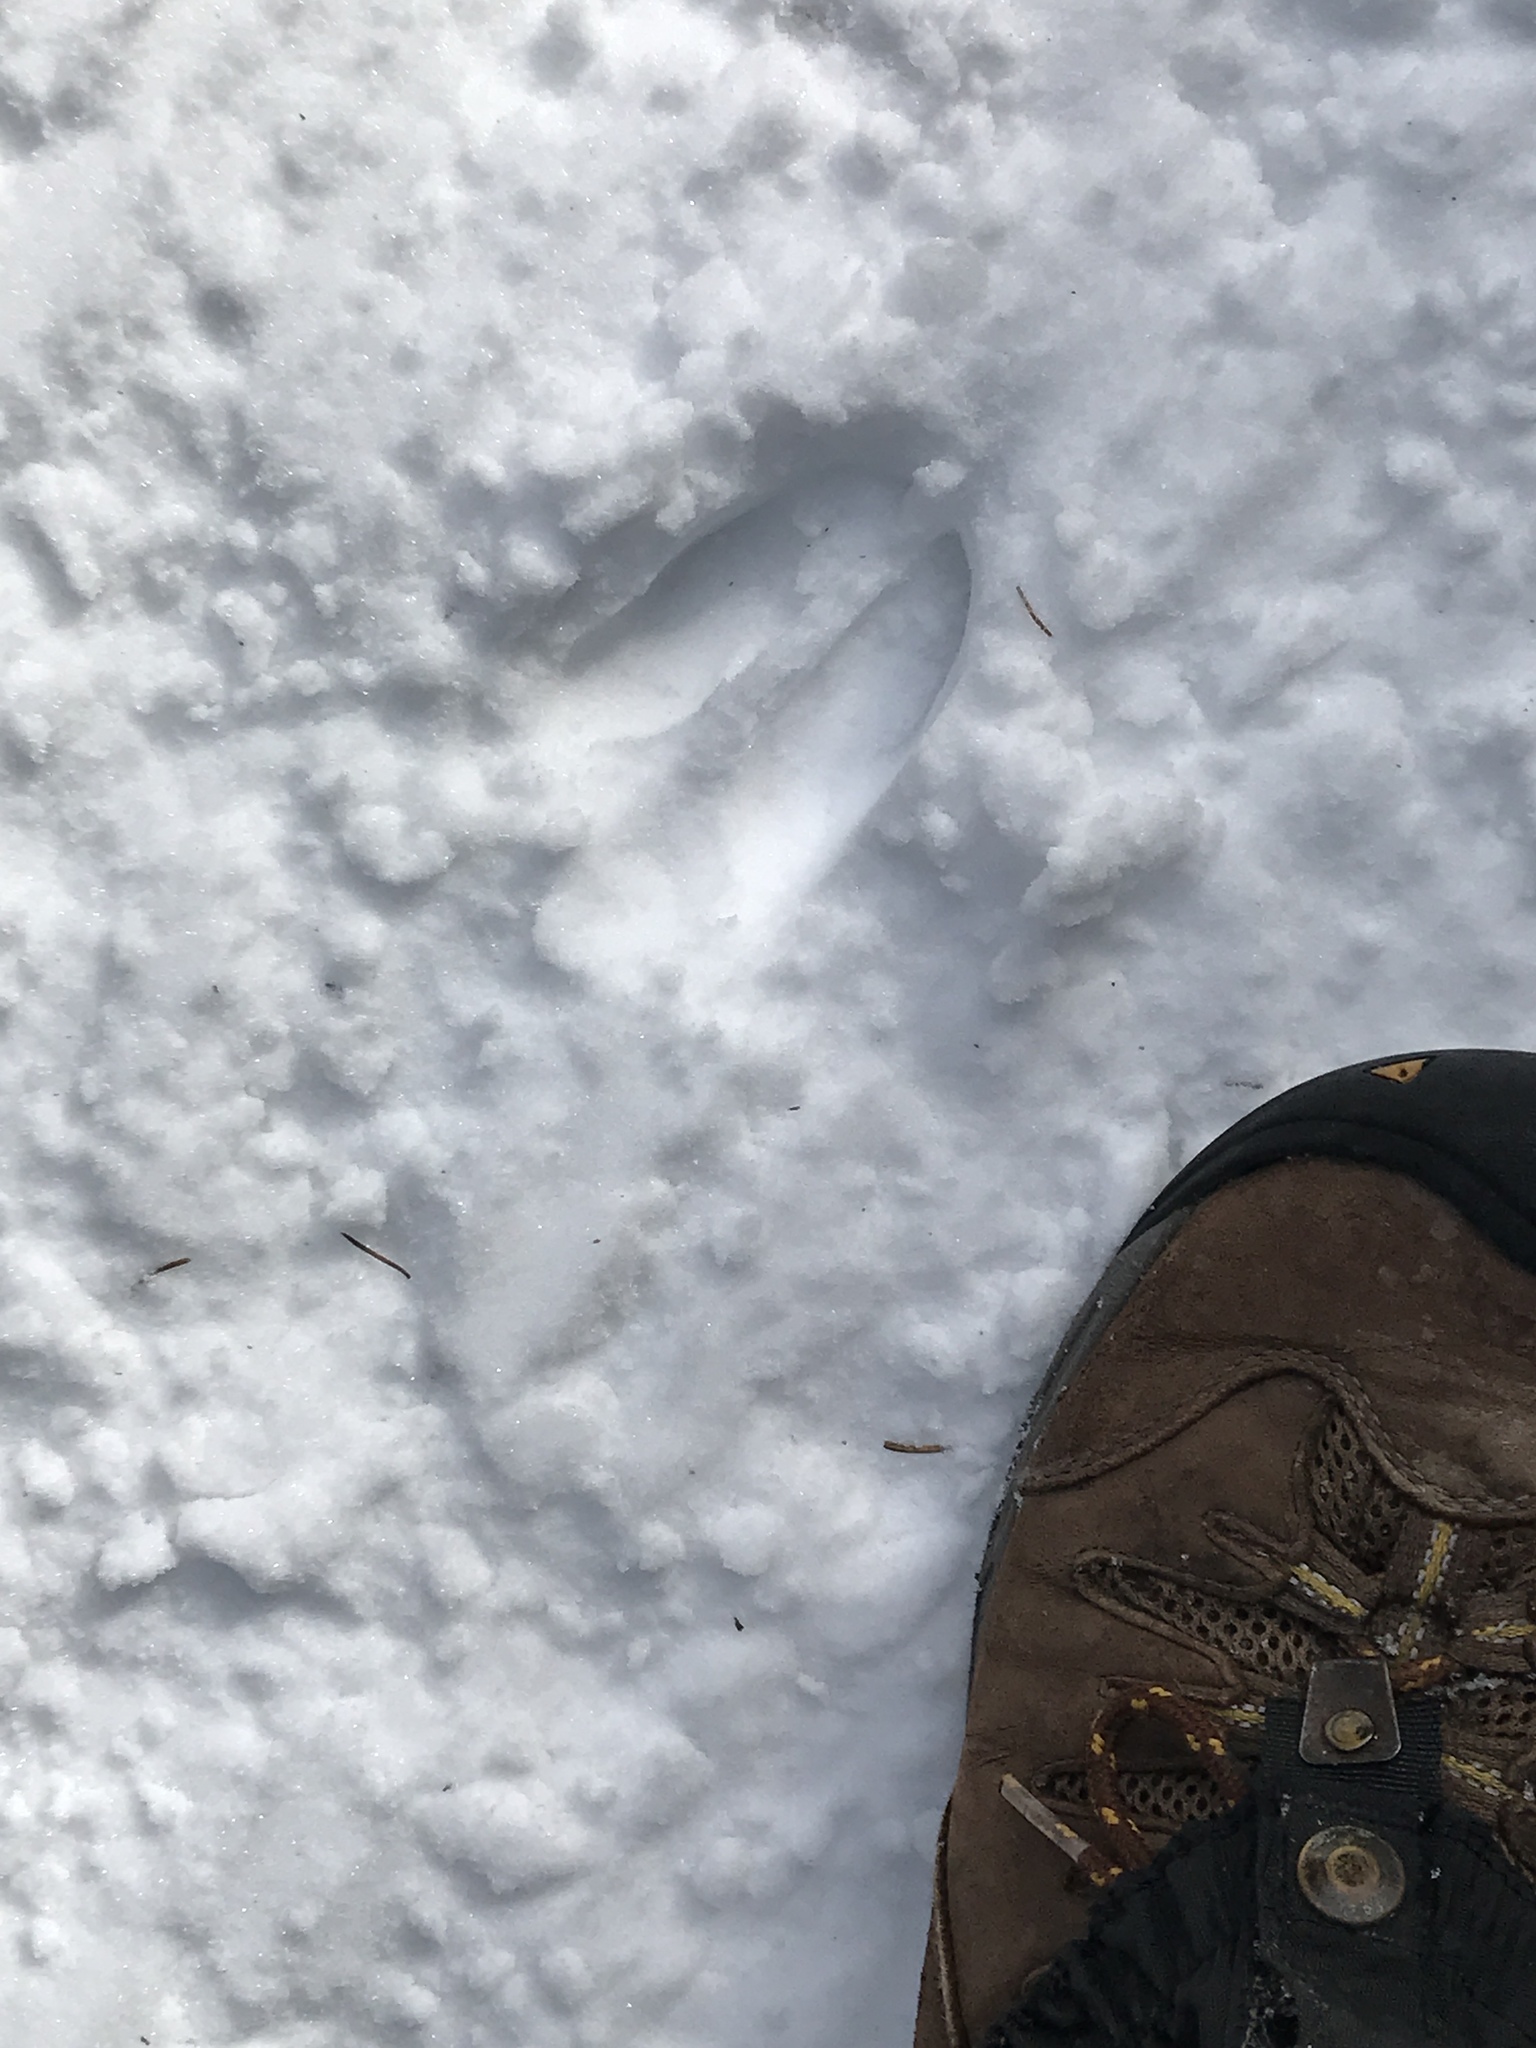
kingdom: Animalia
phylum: Chordata
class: Mammalia
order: Artiodactyla
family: Cervidae
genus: Odocoileus
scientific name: Odocoileus virginianus
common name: White-tailed deer
